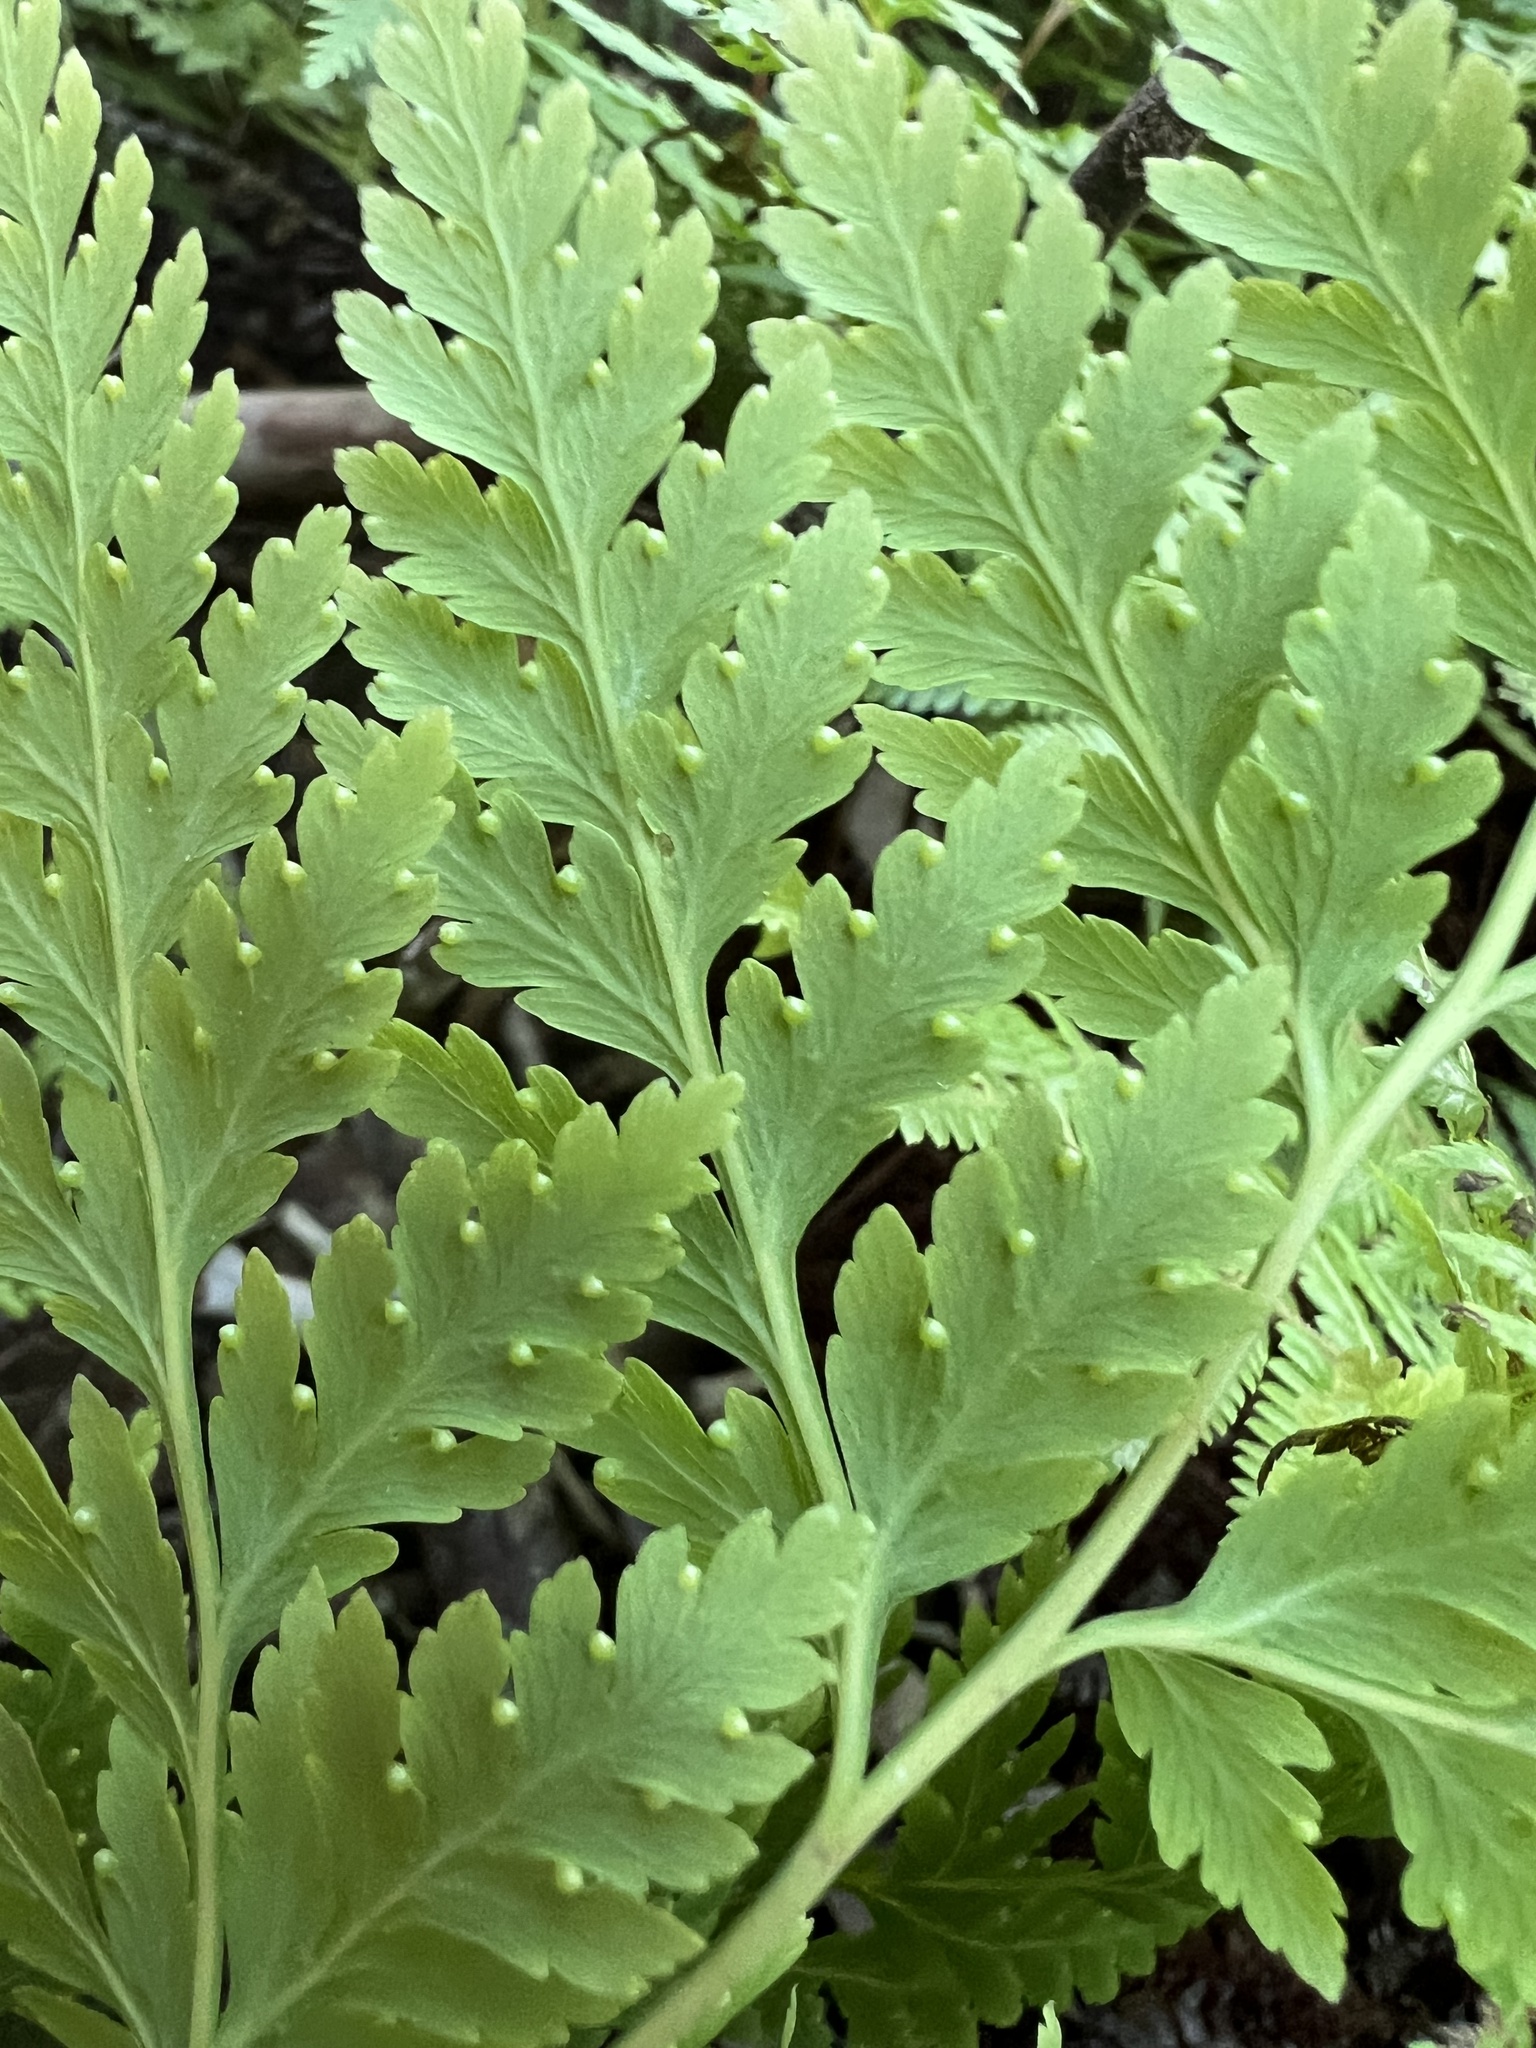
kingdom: Plantae
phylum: Tracheophyta
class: Polypodiopsida
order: Cyatheales
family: Loxsomataceae
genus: Loxsoma
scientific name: Loxsoma cunninghamii
